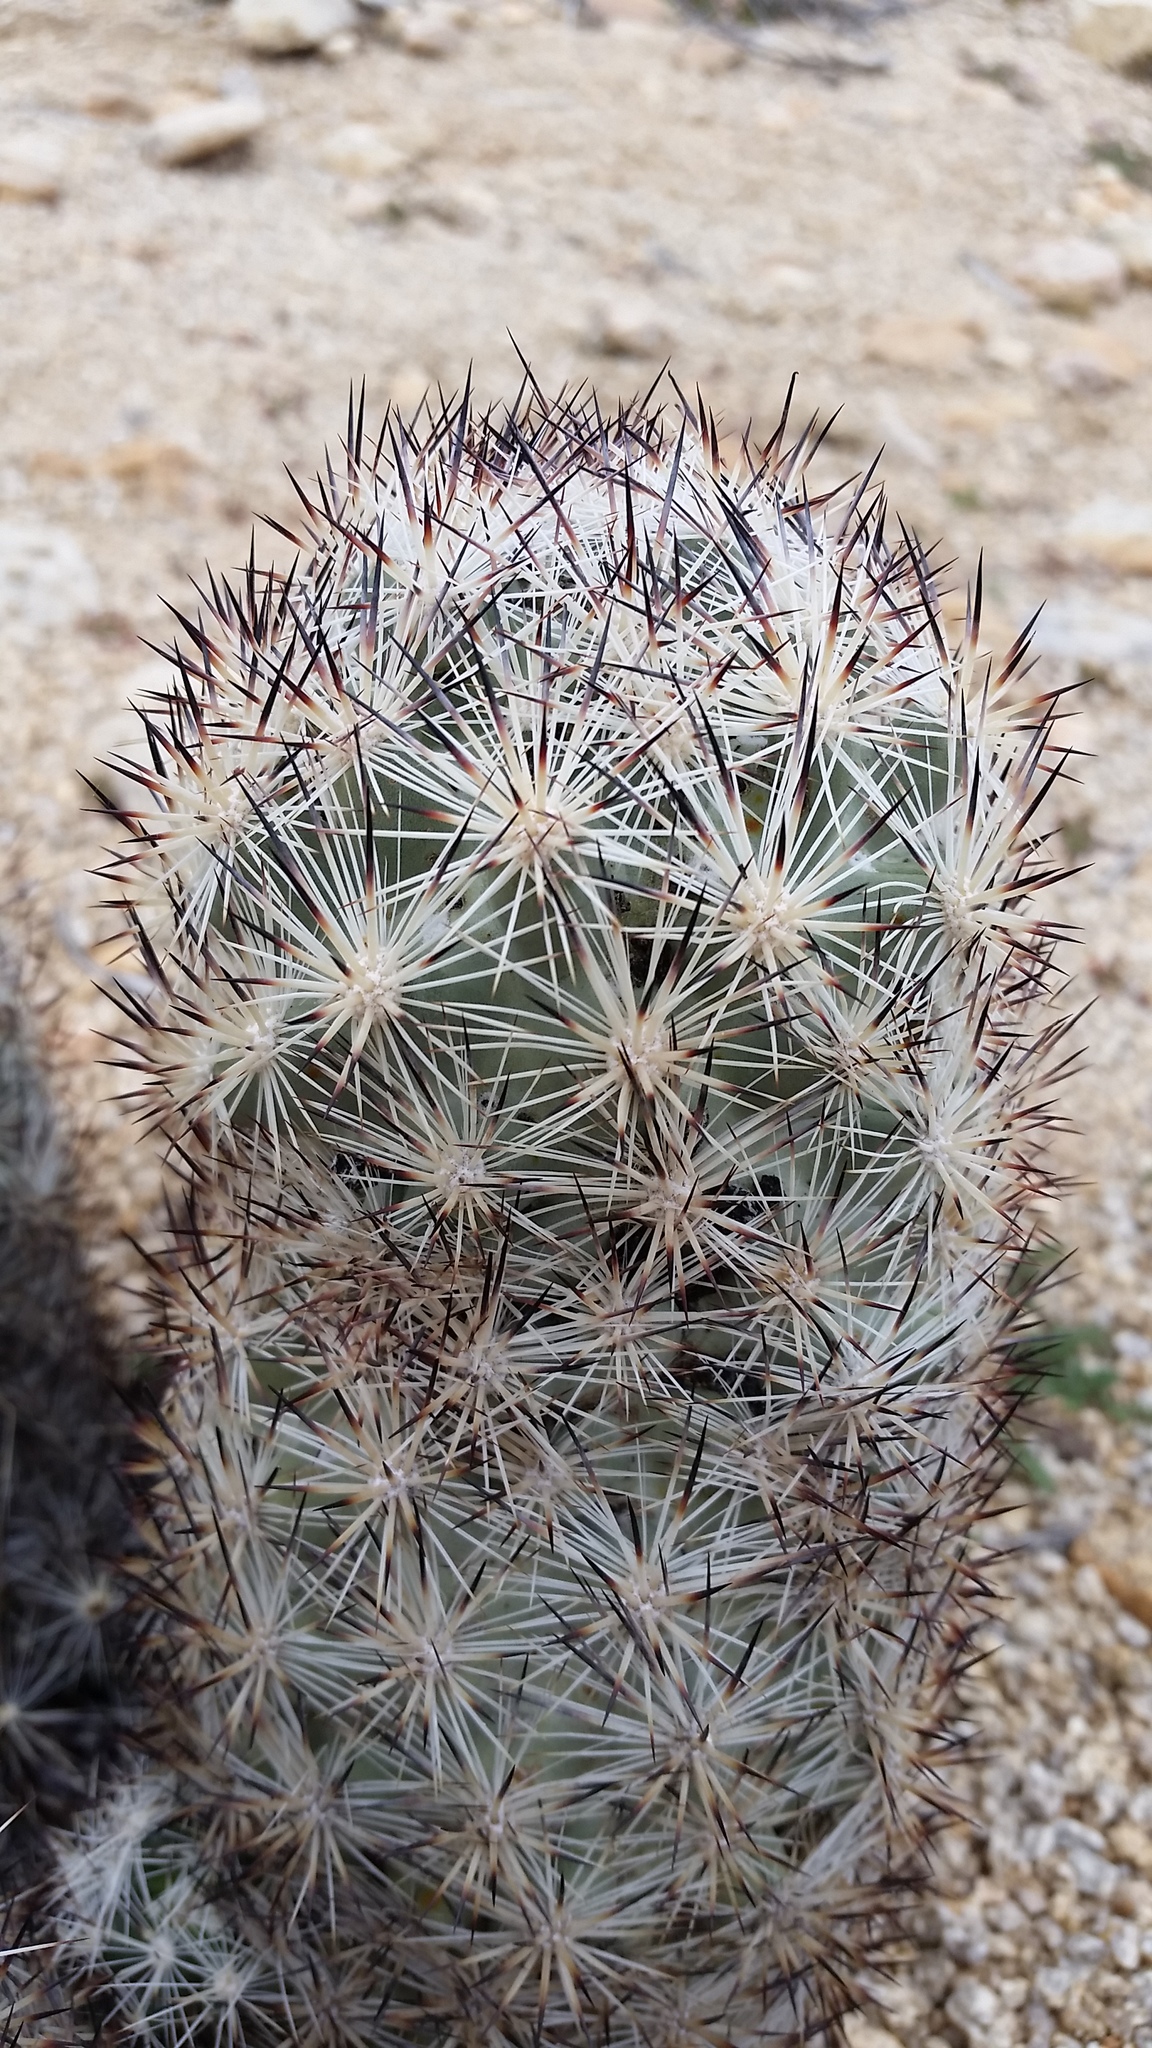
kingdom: Plantae
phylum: Tracheophyta
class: Magnoliopsida
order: Caryophyllales
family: Cactaceae
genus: Pelecyphora
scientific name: Pelecyphora alversonii
